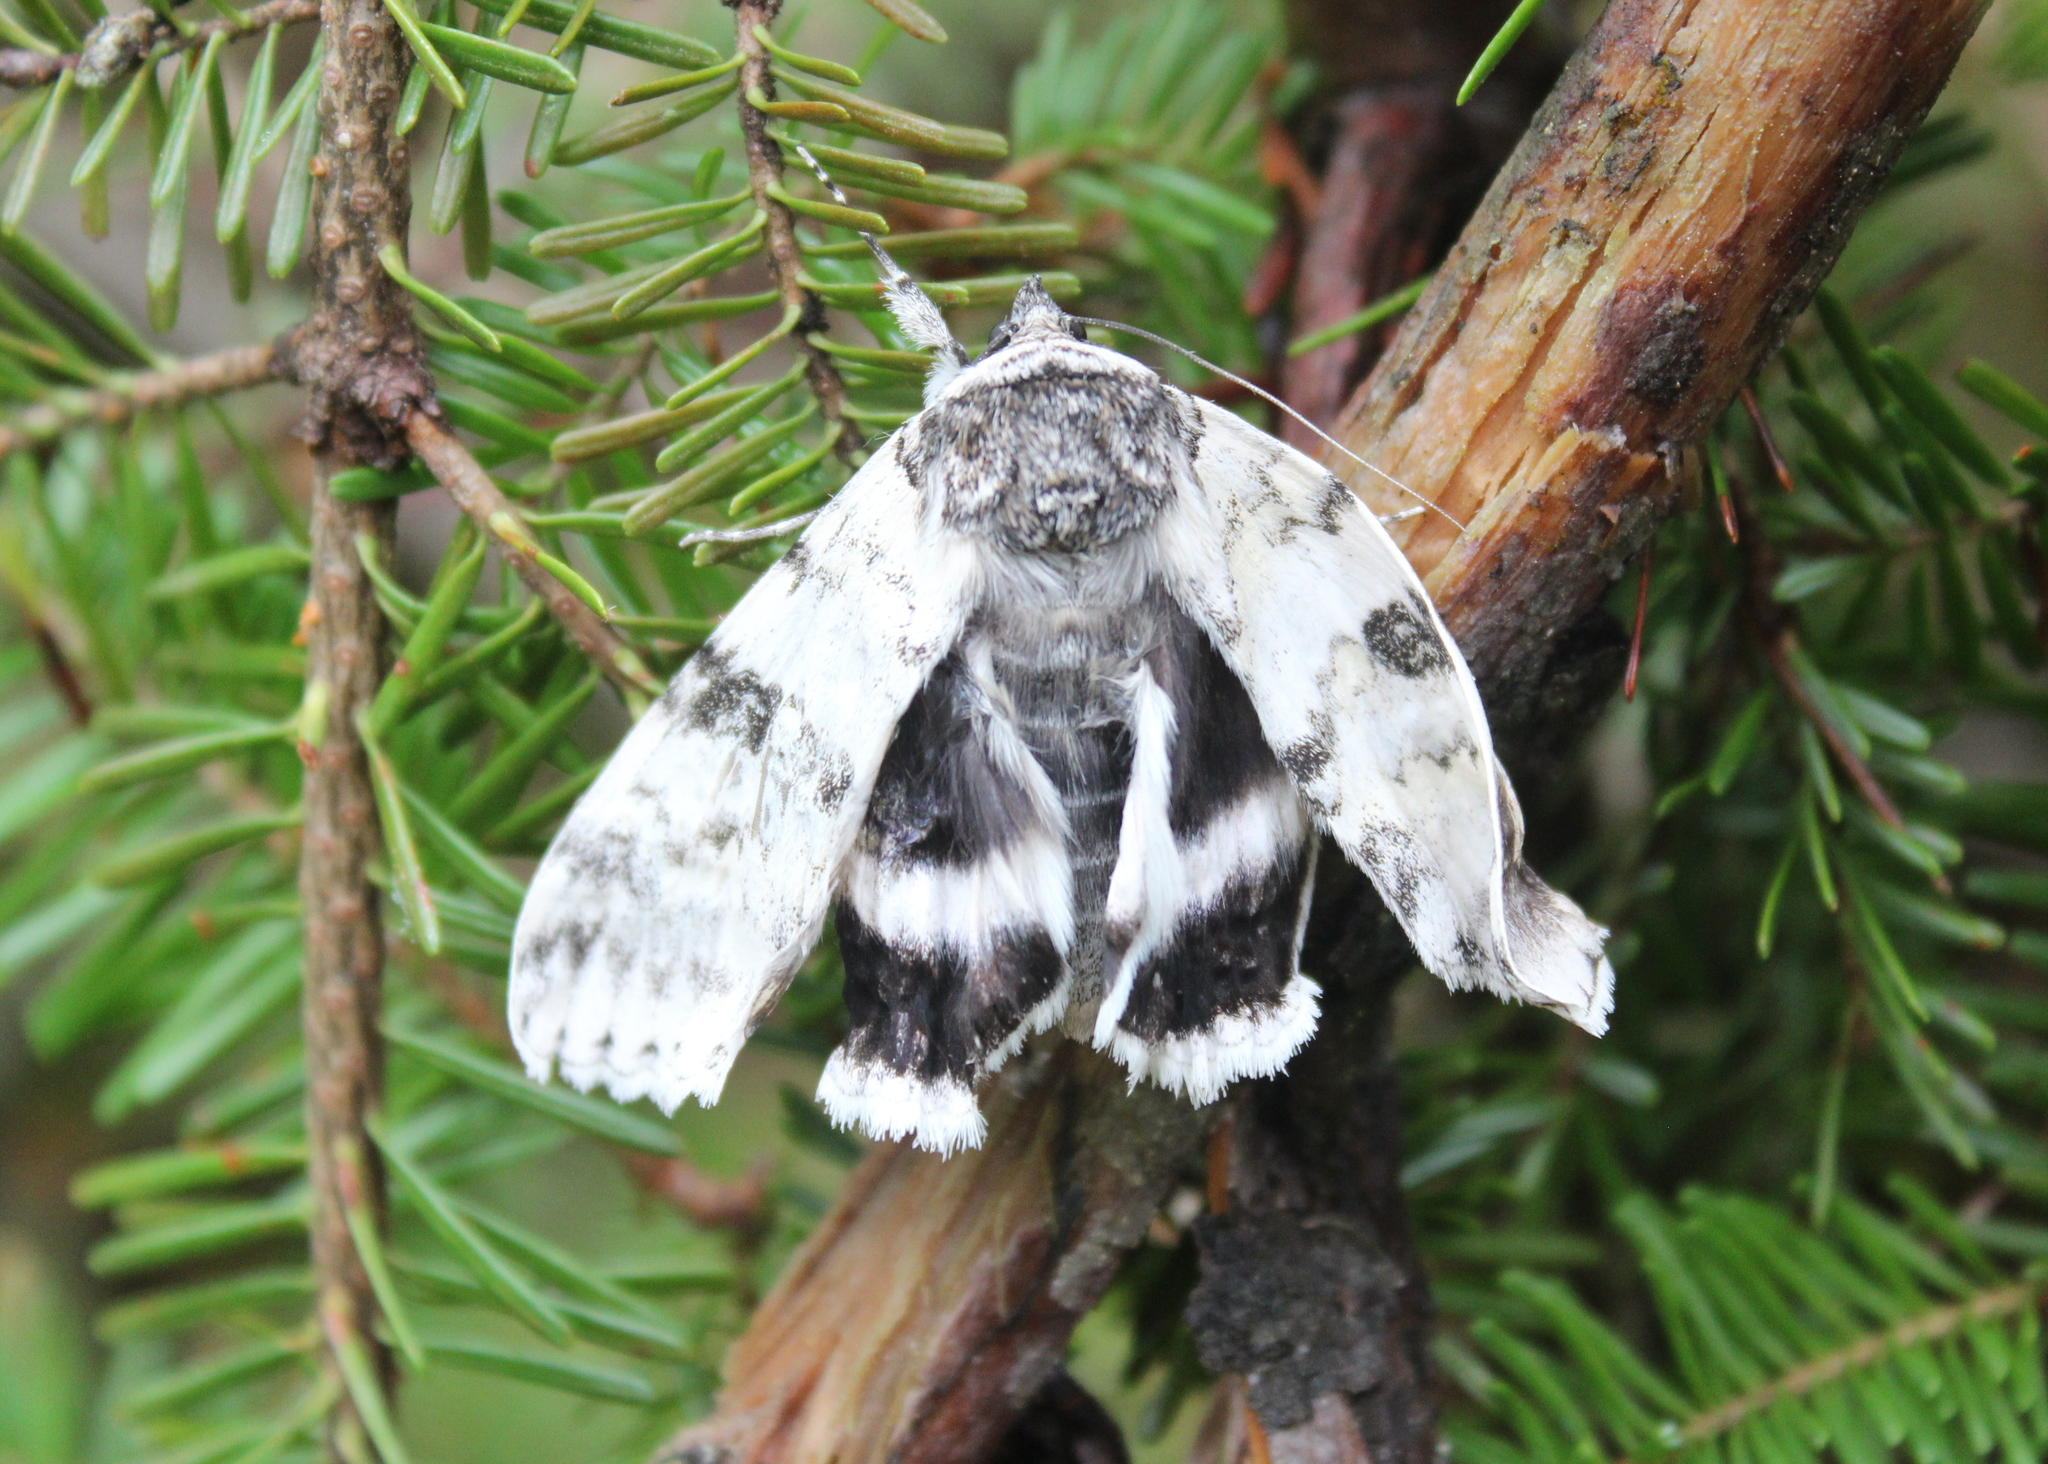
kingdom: Animalia
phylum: Arthropoda
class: Insecta
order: Lepidoptera
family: Erebidae
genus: Catocala
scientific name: Catocala relicta
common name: White underwing
